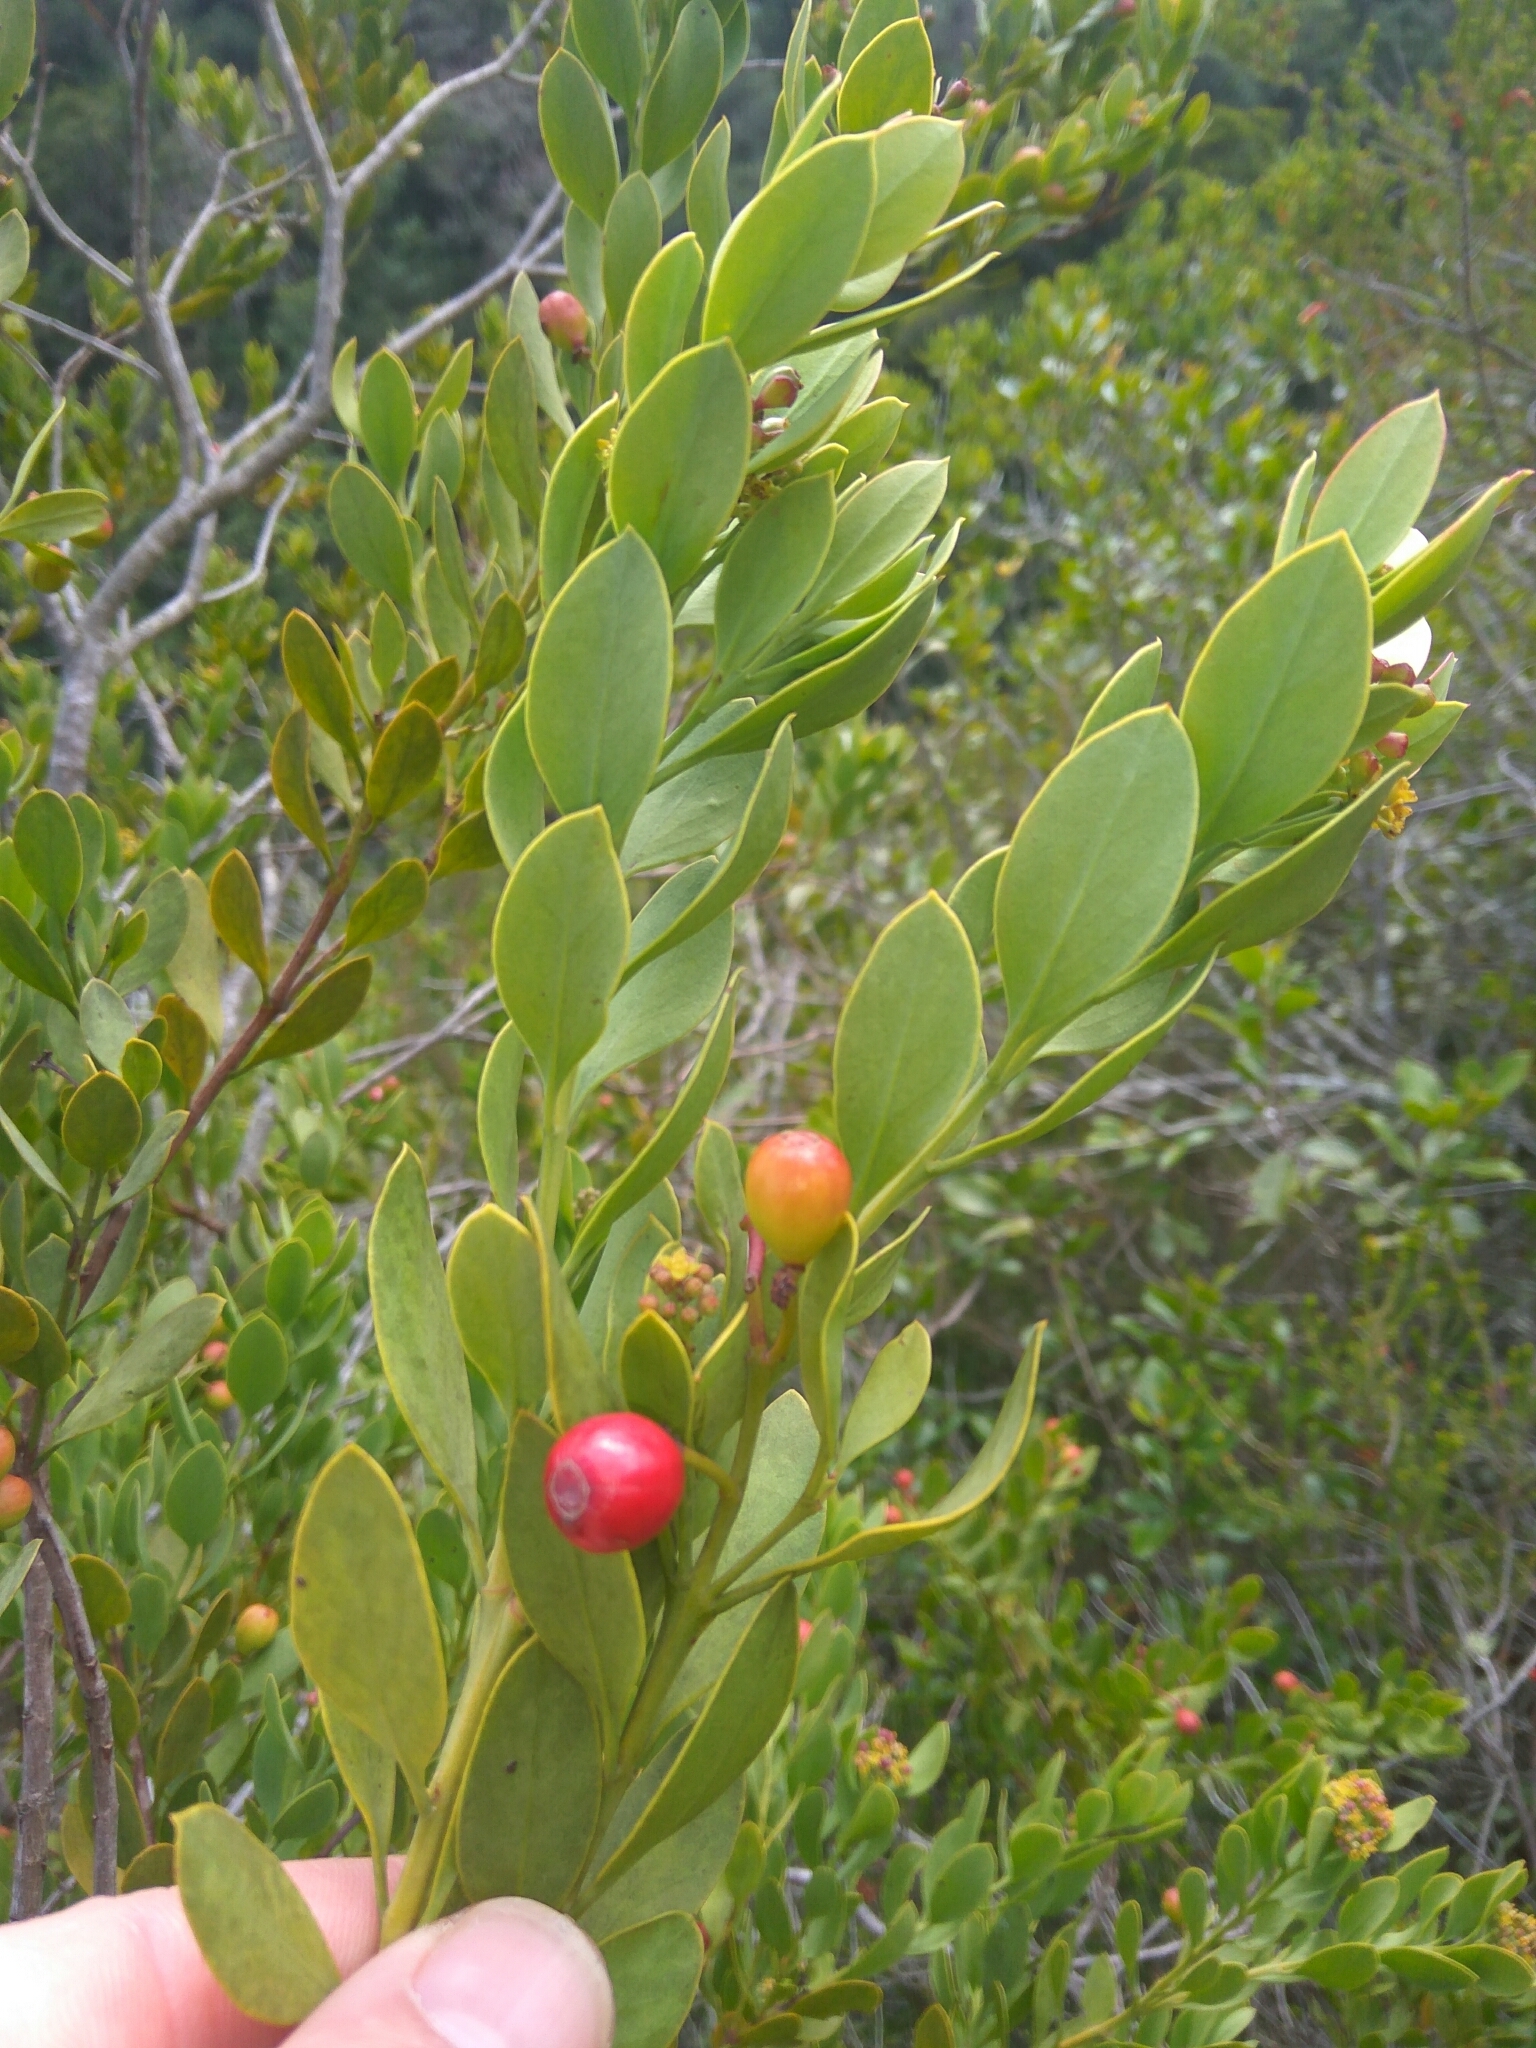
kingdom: Plantae
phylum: Tracheophyta
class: Magnoliopsida
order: Santalales
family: Santalaceae
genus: Osyris
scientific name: Osyris compressa
